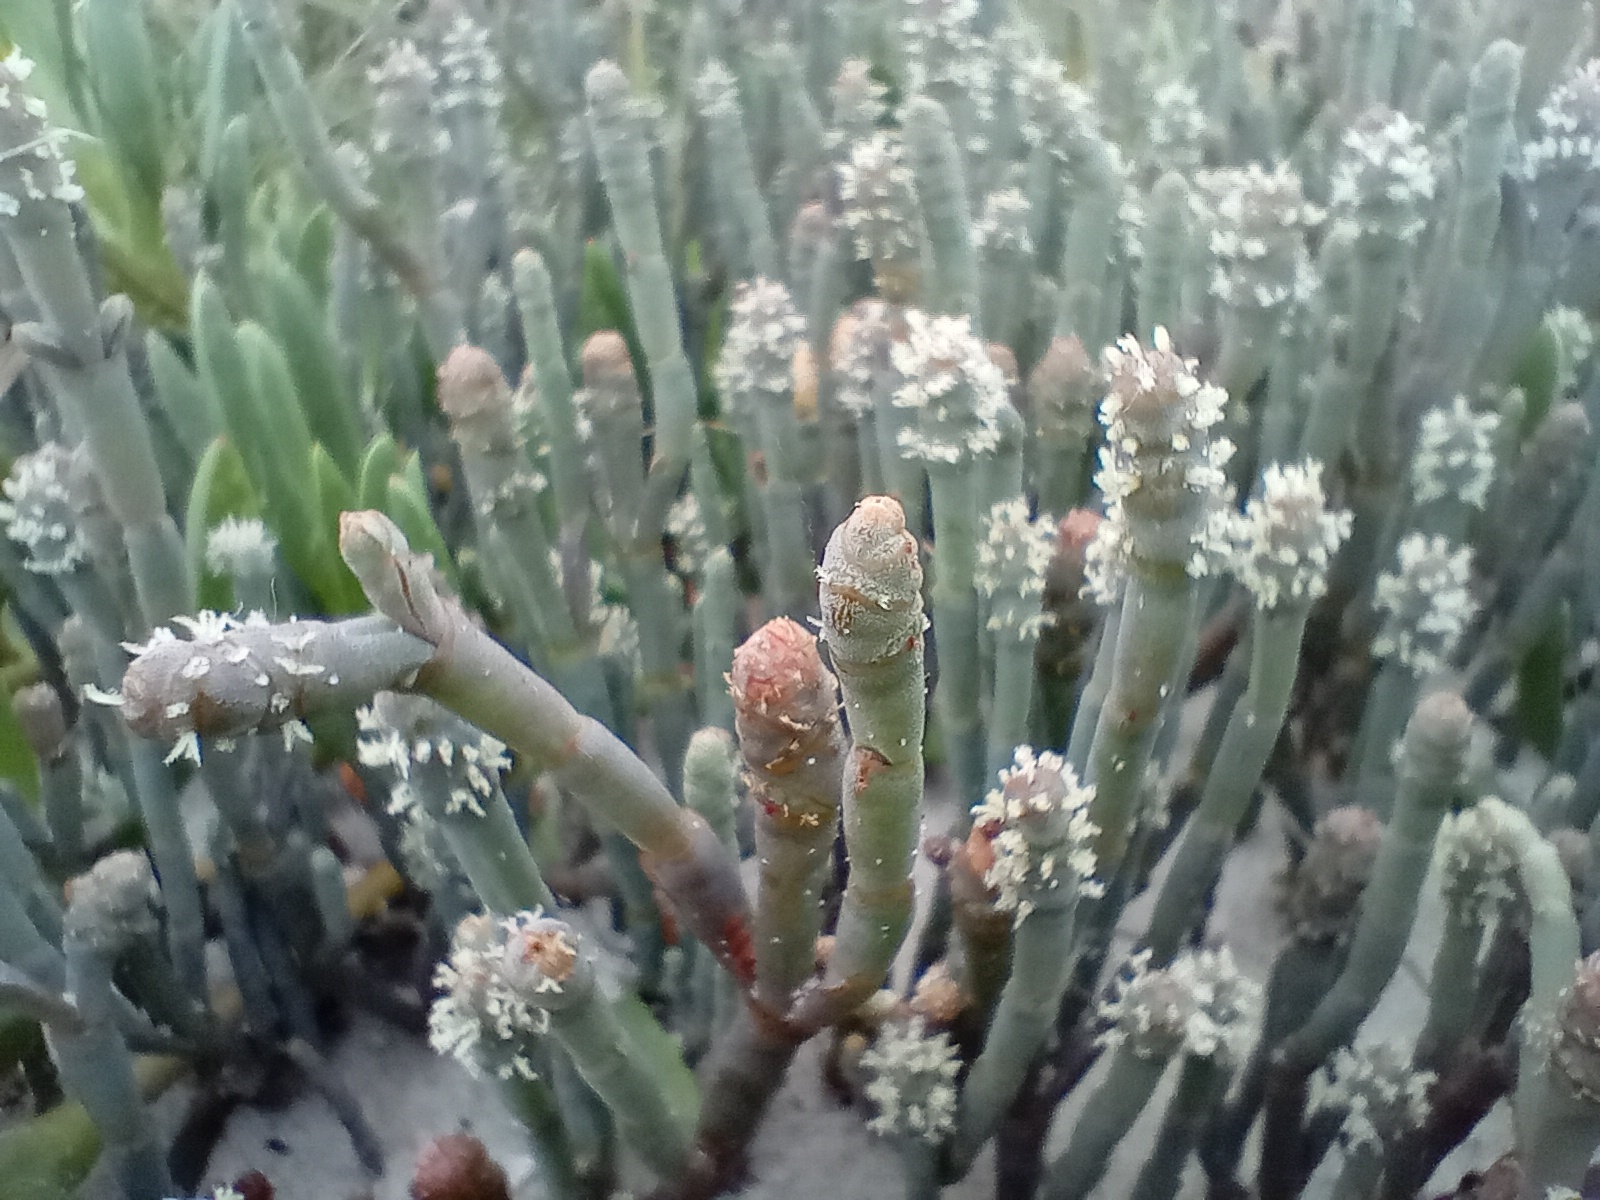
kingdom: Plantae
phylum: Tracheophyta
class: Magnoliopsida
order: Caryophyllales
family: Amaranthaceae
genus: Salicornia
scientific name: Salicornia quinqueflora
